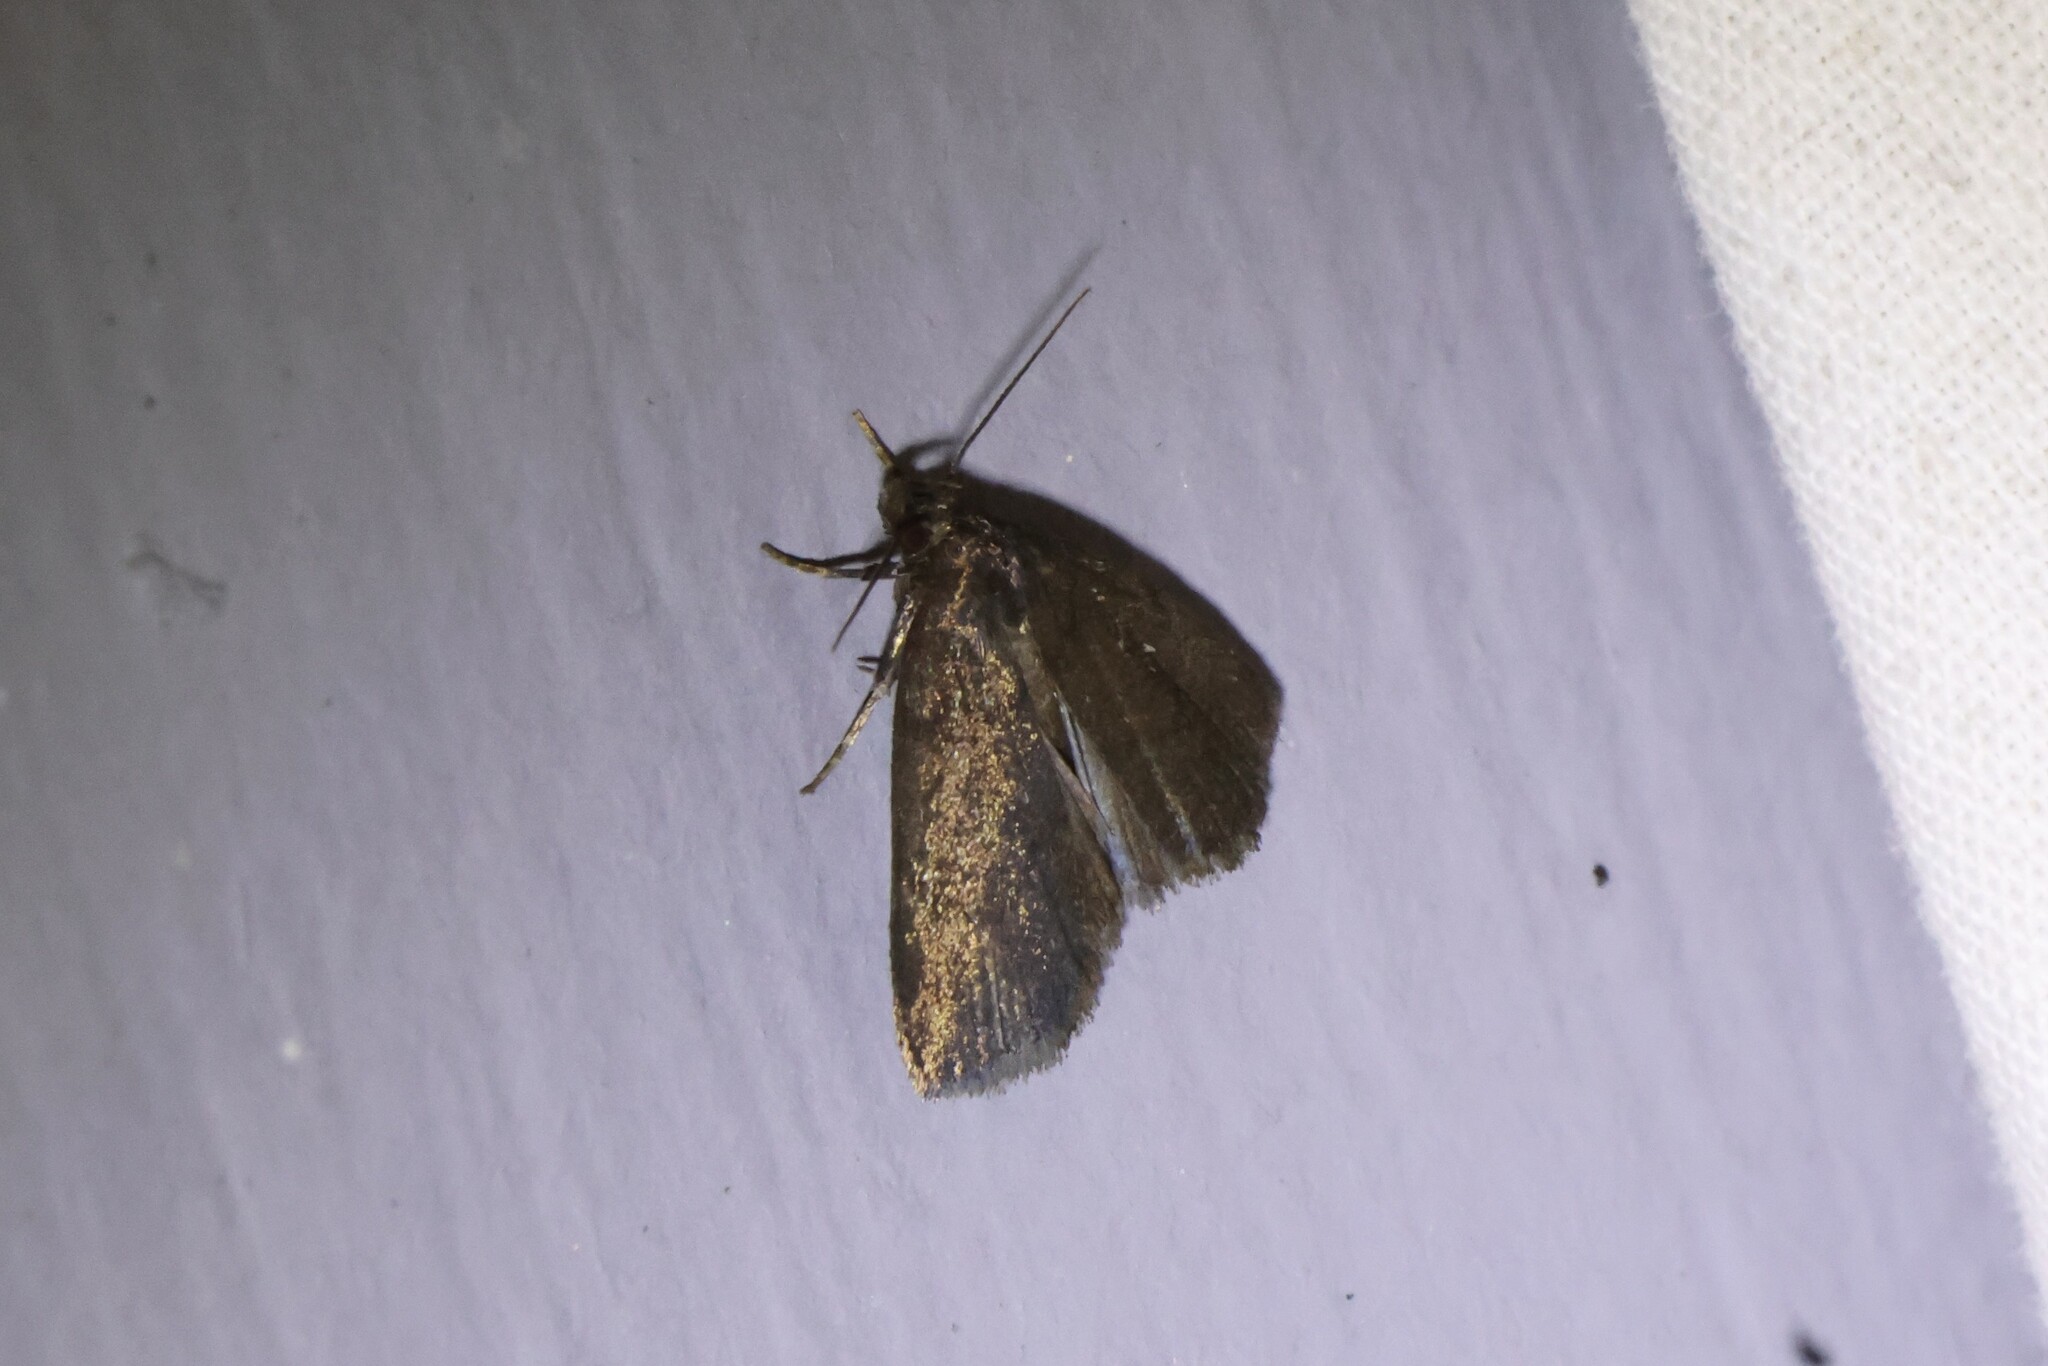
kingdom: Animalia
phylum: Arthropoda
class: Insecta
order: Lepidoptera
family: Erebidae
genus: Idia
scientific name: Idia rotundalis
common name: Rotund idia moth
